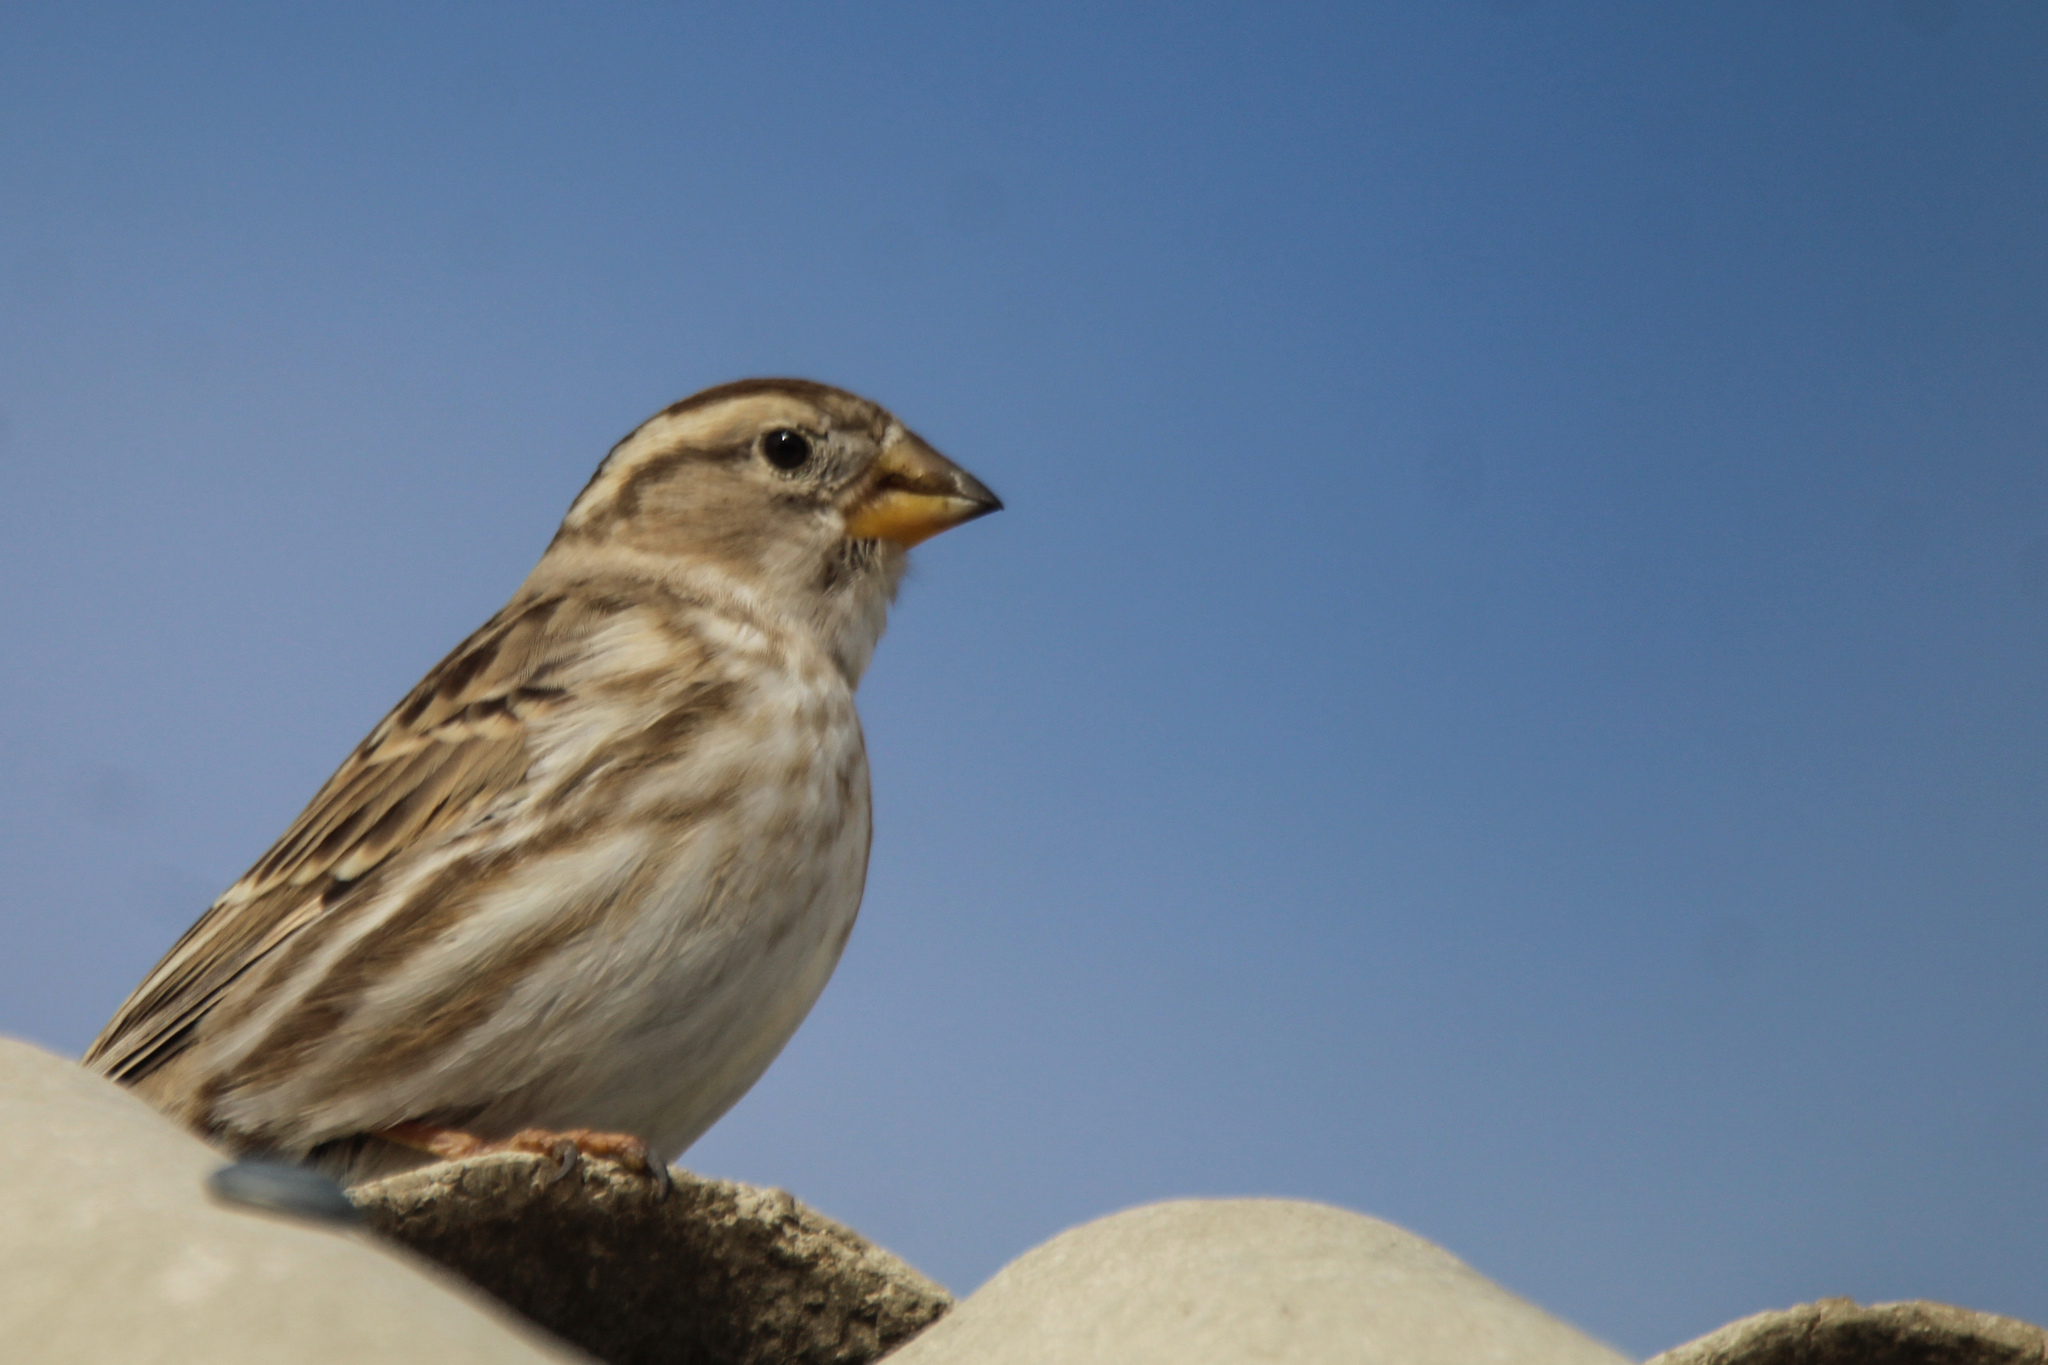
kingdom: Animalia
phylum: Chordata
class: Aves
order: Passeriformes
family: Passeridae
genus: Petronia
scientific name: Petronia petronia
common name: Rock sparrow
